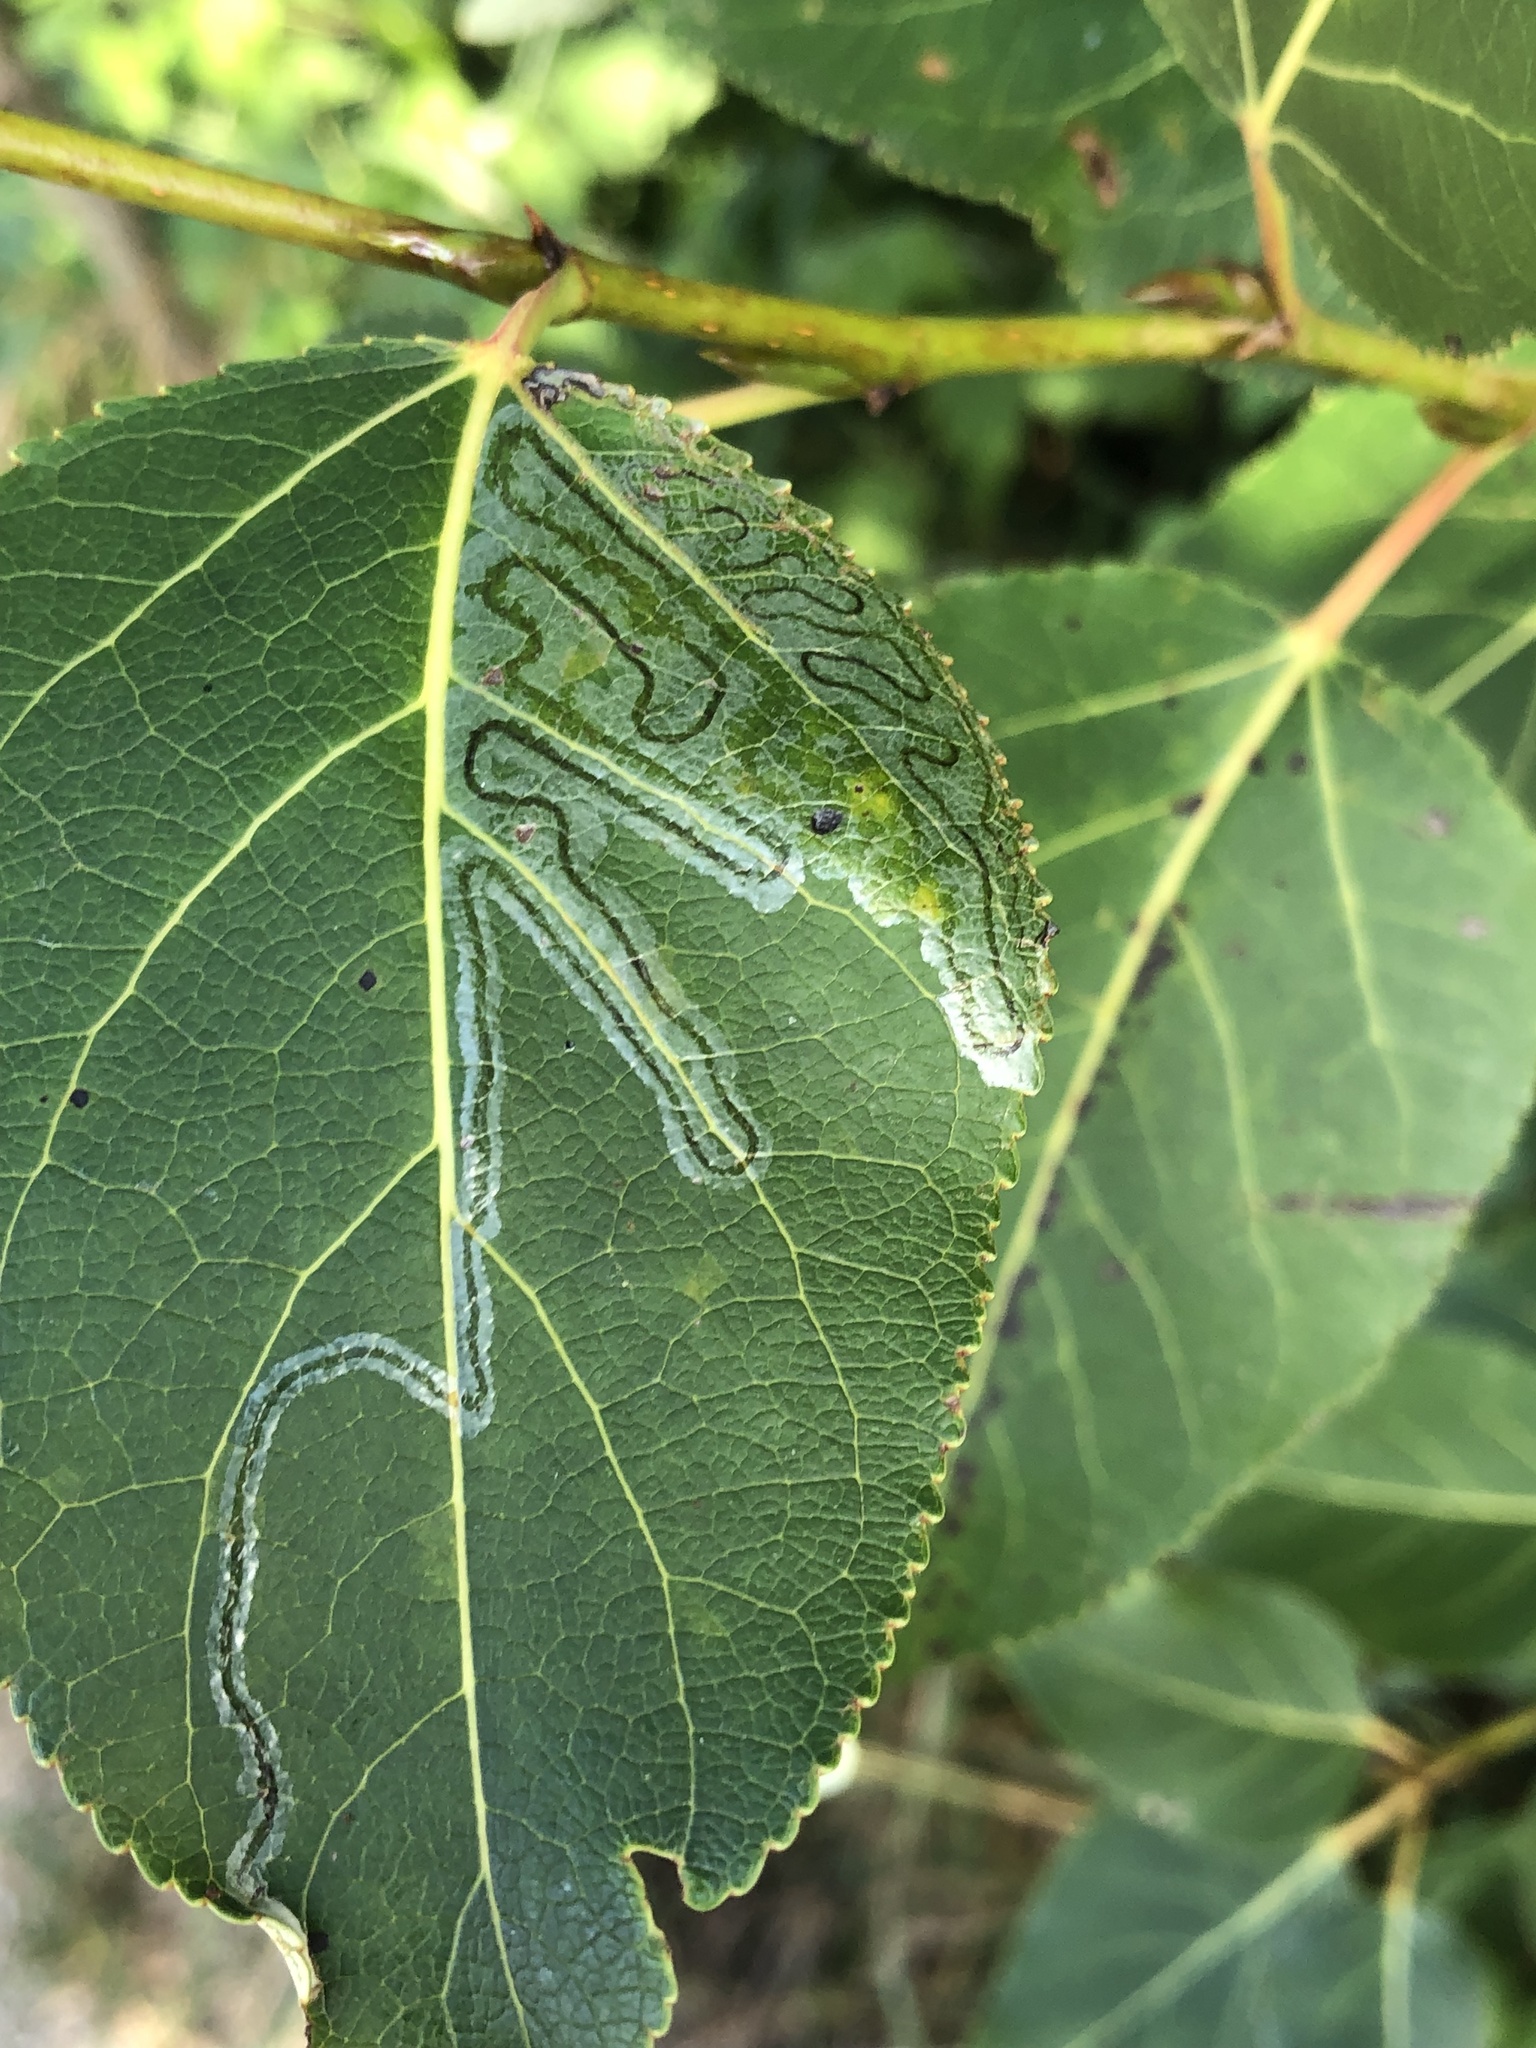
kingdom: Animalia
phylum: Arthropoda
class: Insecta
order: Lepidoptera
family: Gracillariidae
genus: Phyllocnistis
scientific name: Phyllocnistis populiella
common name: Aspen serpentine leafminer moth
